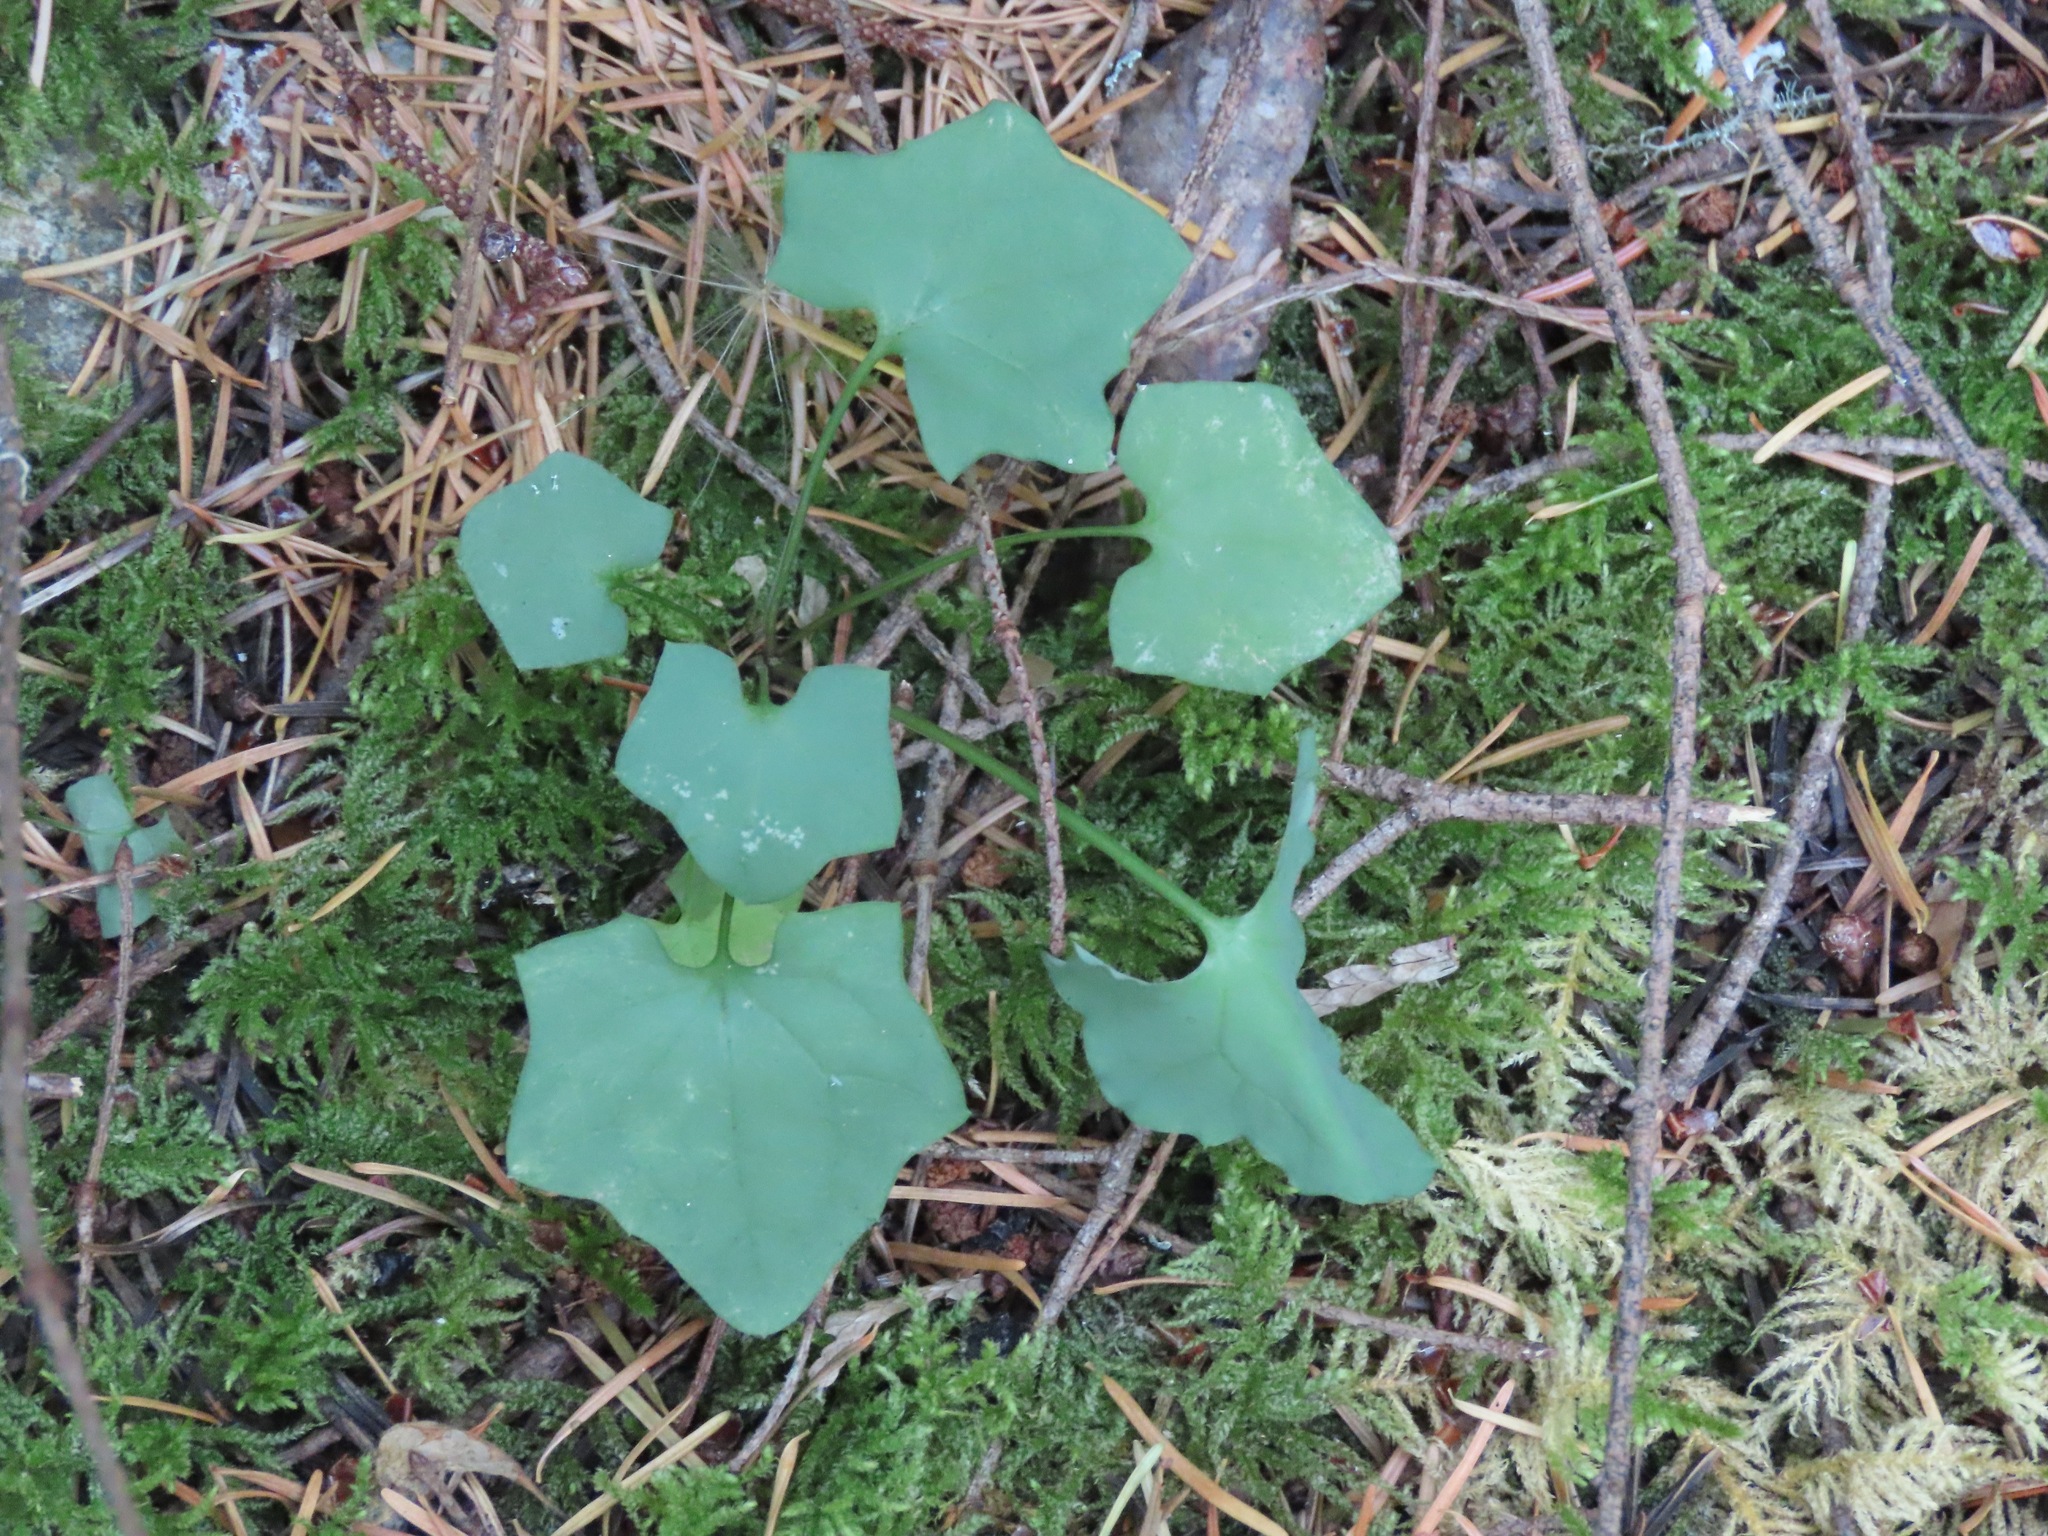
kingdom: Plantae
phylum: Tracheophyta
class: Magnoliopsida
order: Asterales
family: Asteraceae
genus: Mycelis
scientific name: Mycelis muralis
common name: Wall lettuce
